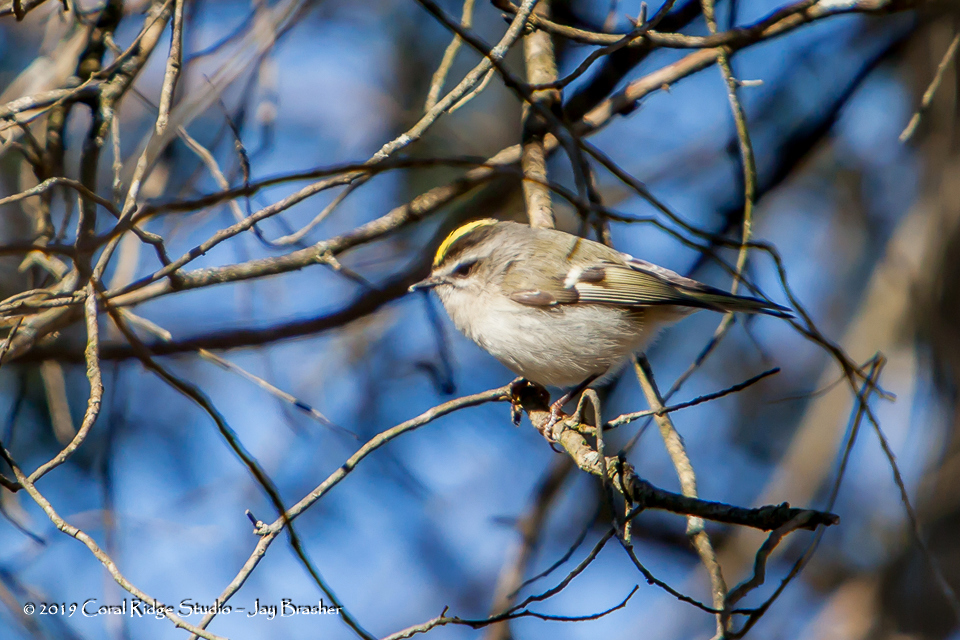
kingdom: Animalia
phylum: Chordata
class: Aves
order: Passeriformes
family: Regulidae
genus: Regulus
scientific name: Regulus satrapa
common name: Golden-crowned kinglet
